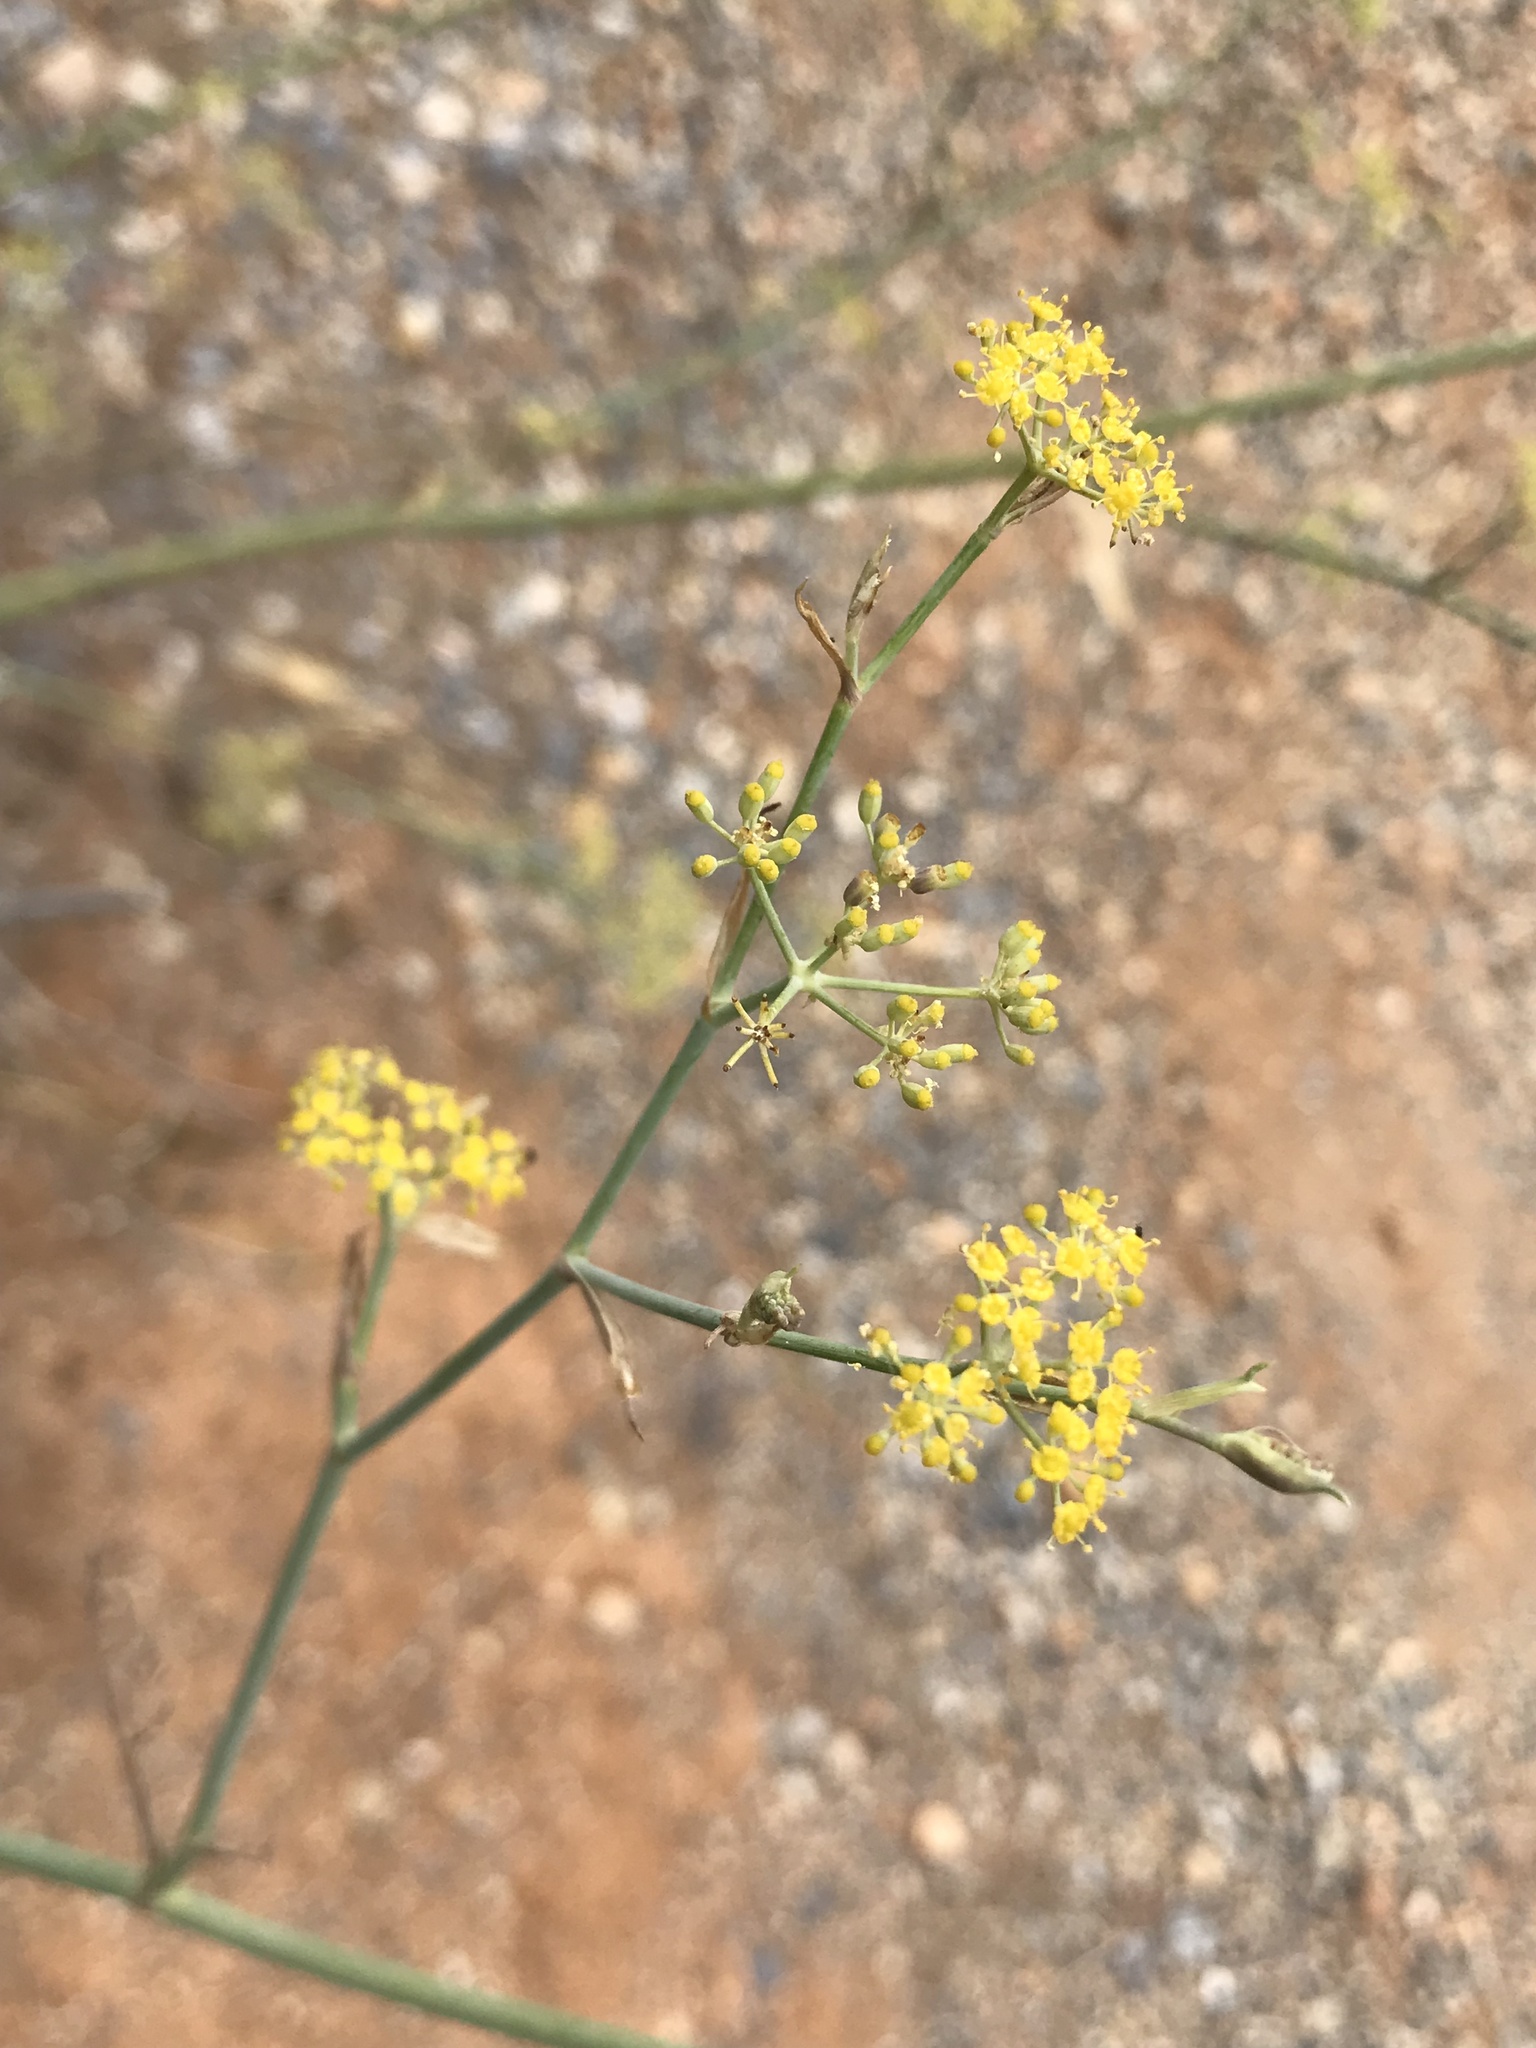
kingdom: Plantae
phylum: Tracheophyta
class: Magnoliopsida
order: Apiales
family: Apiaceae
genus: Foeniculum
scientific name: Foeniculum vulgare
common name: Fennel
